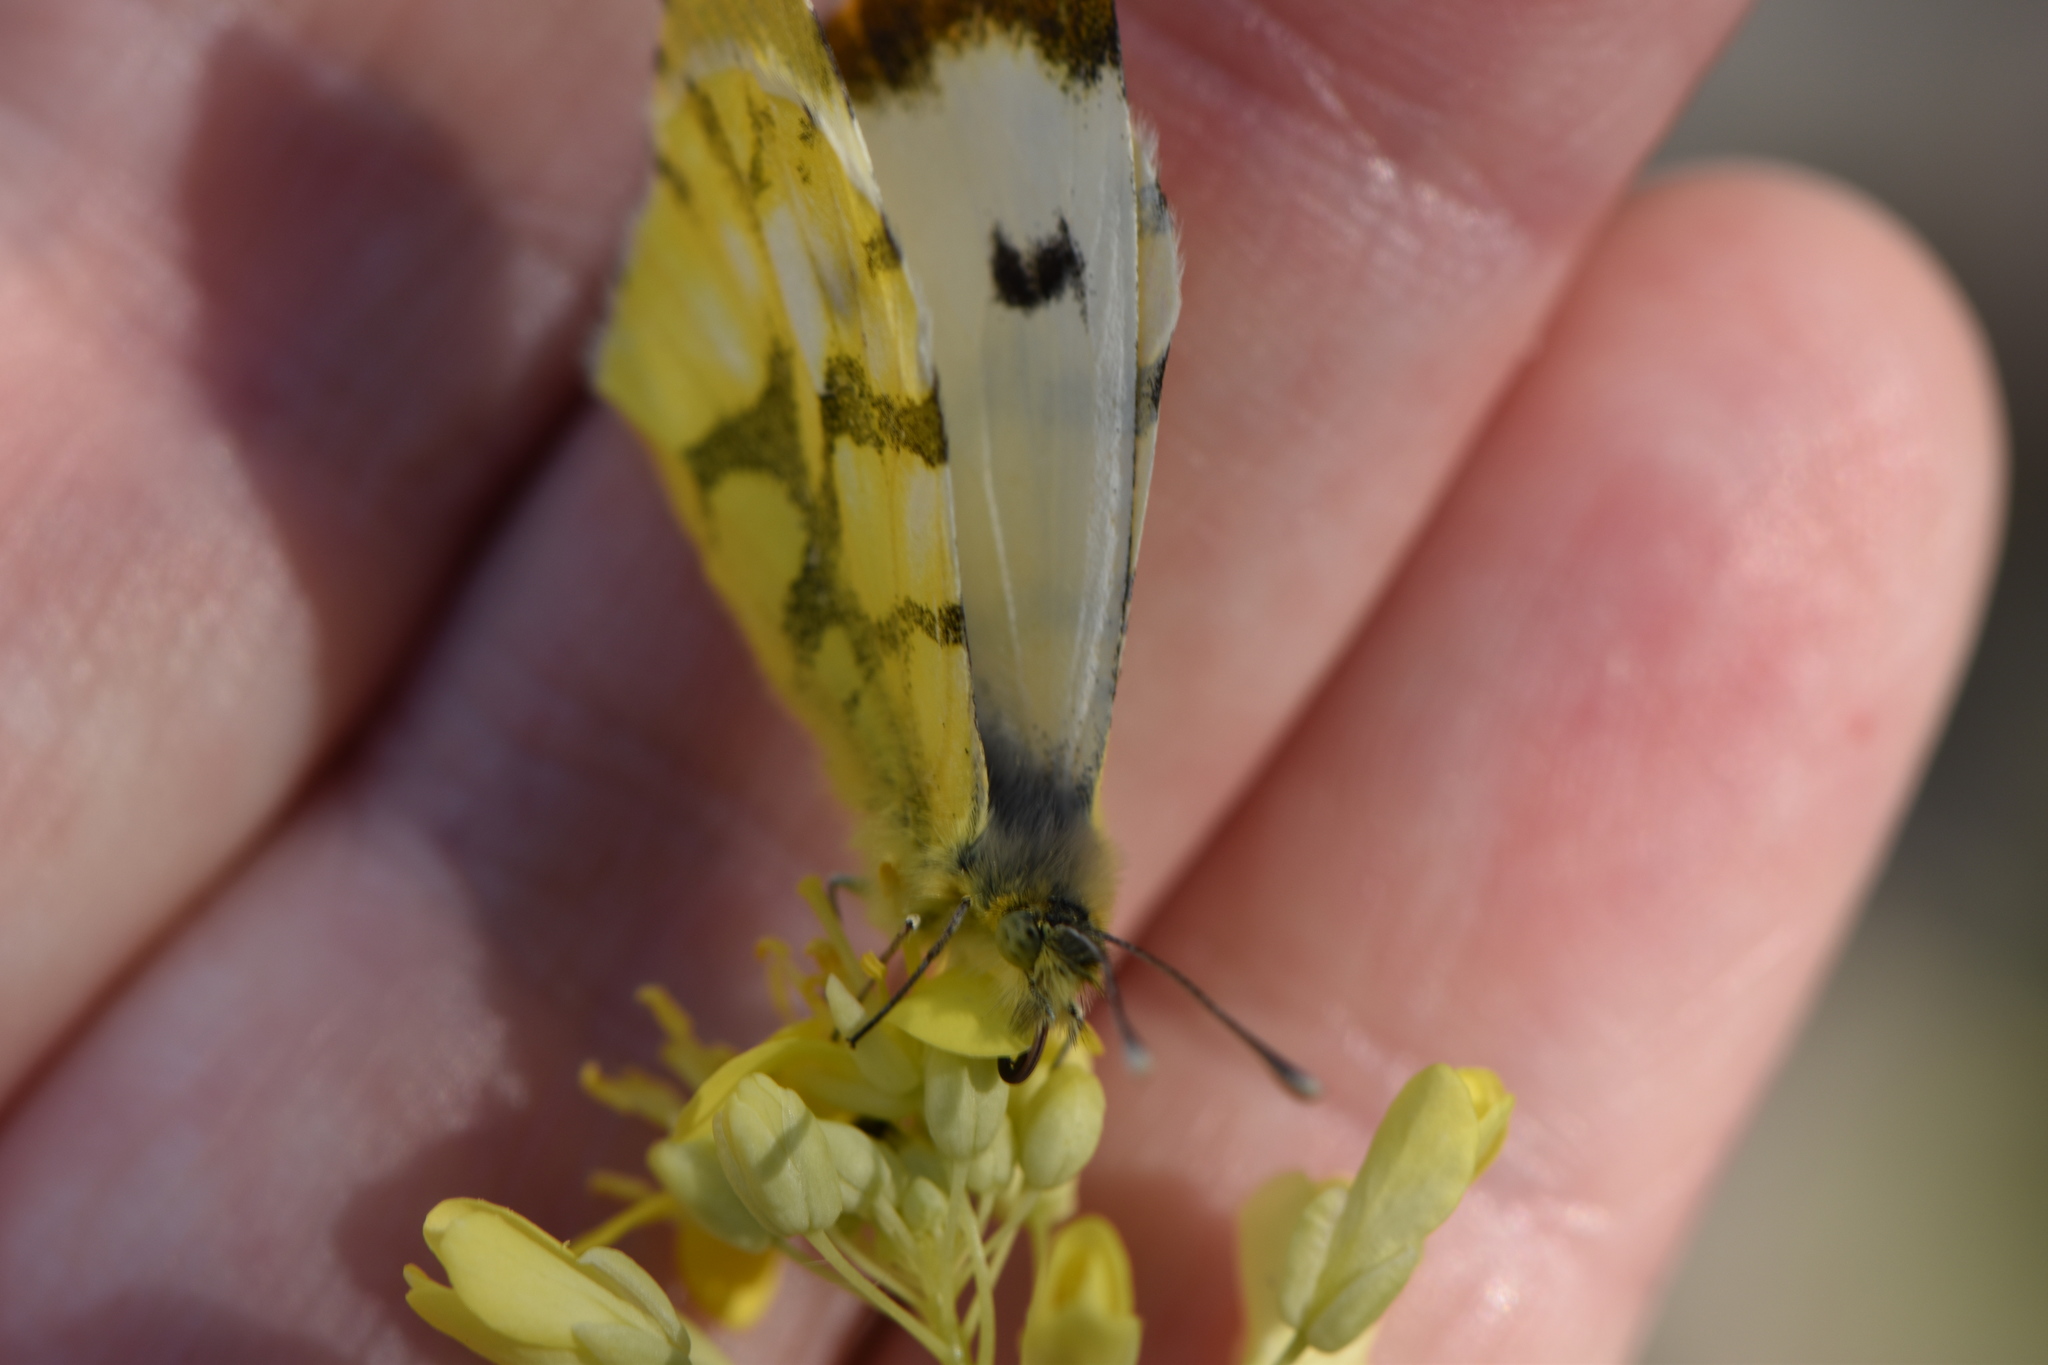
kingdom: Animalia
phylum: Arthropoda
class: Insecta
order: Lepidoptera
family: Pieridae
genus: Anthocharis
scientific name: Anthocharis euphenoides
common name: Provence orange-tip
